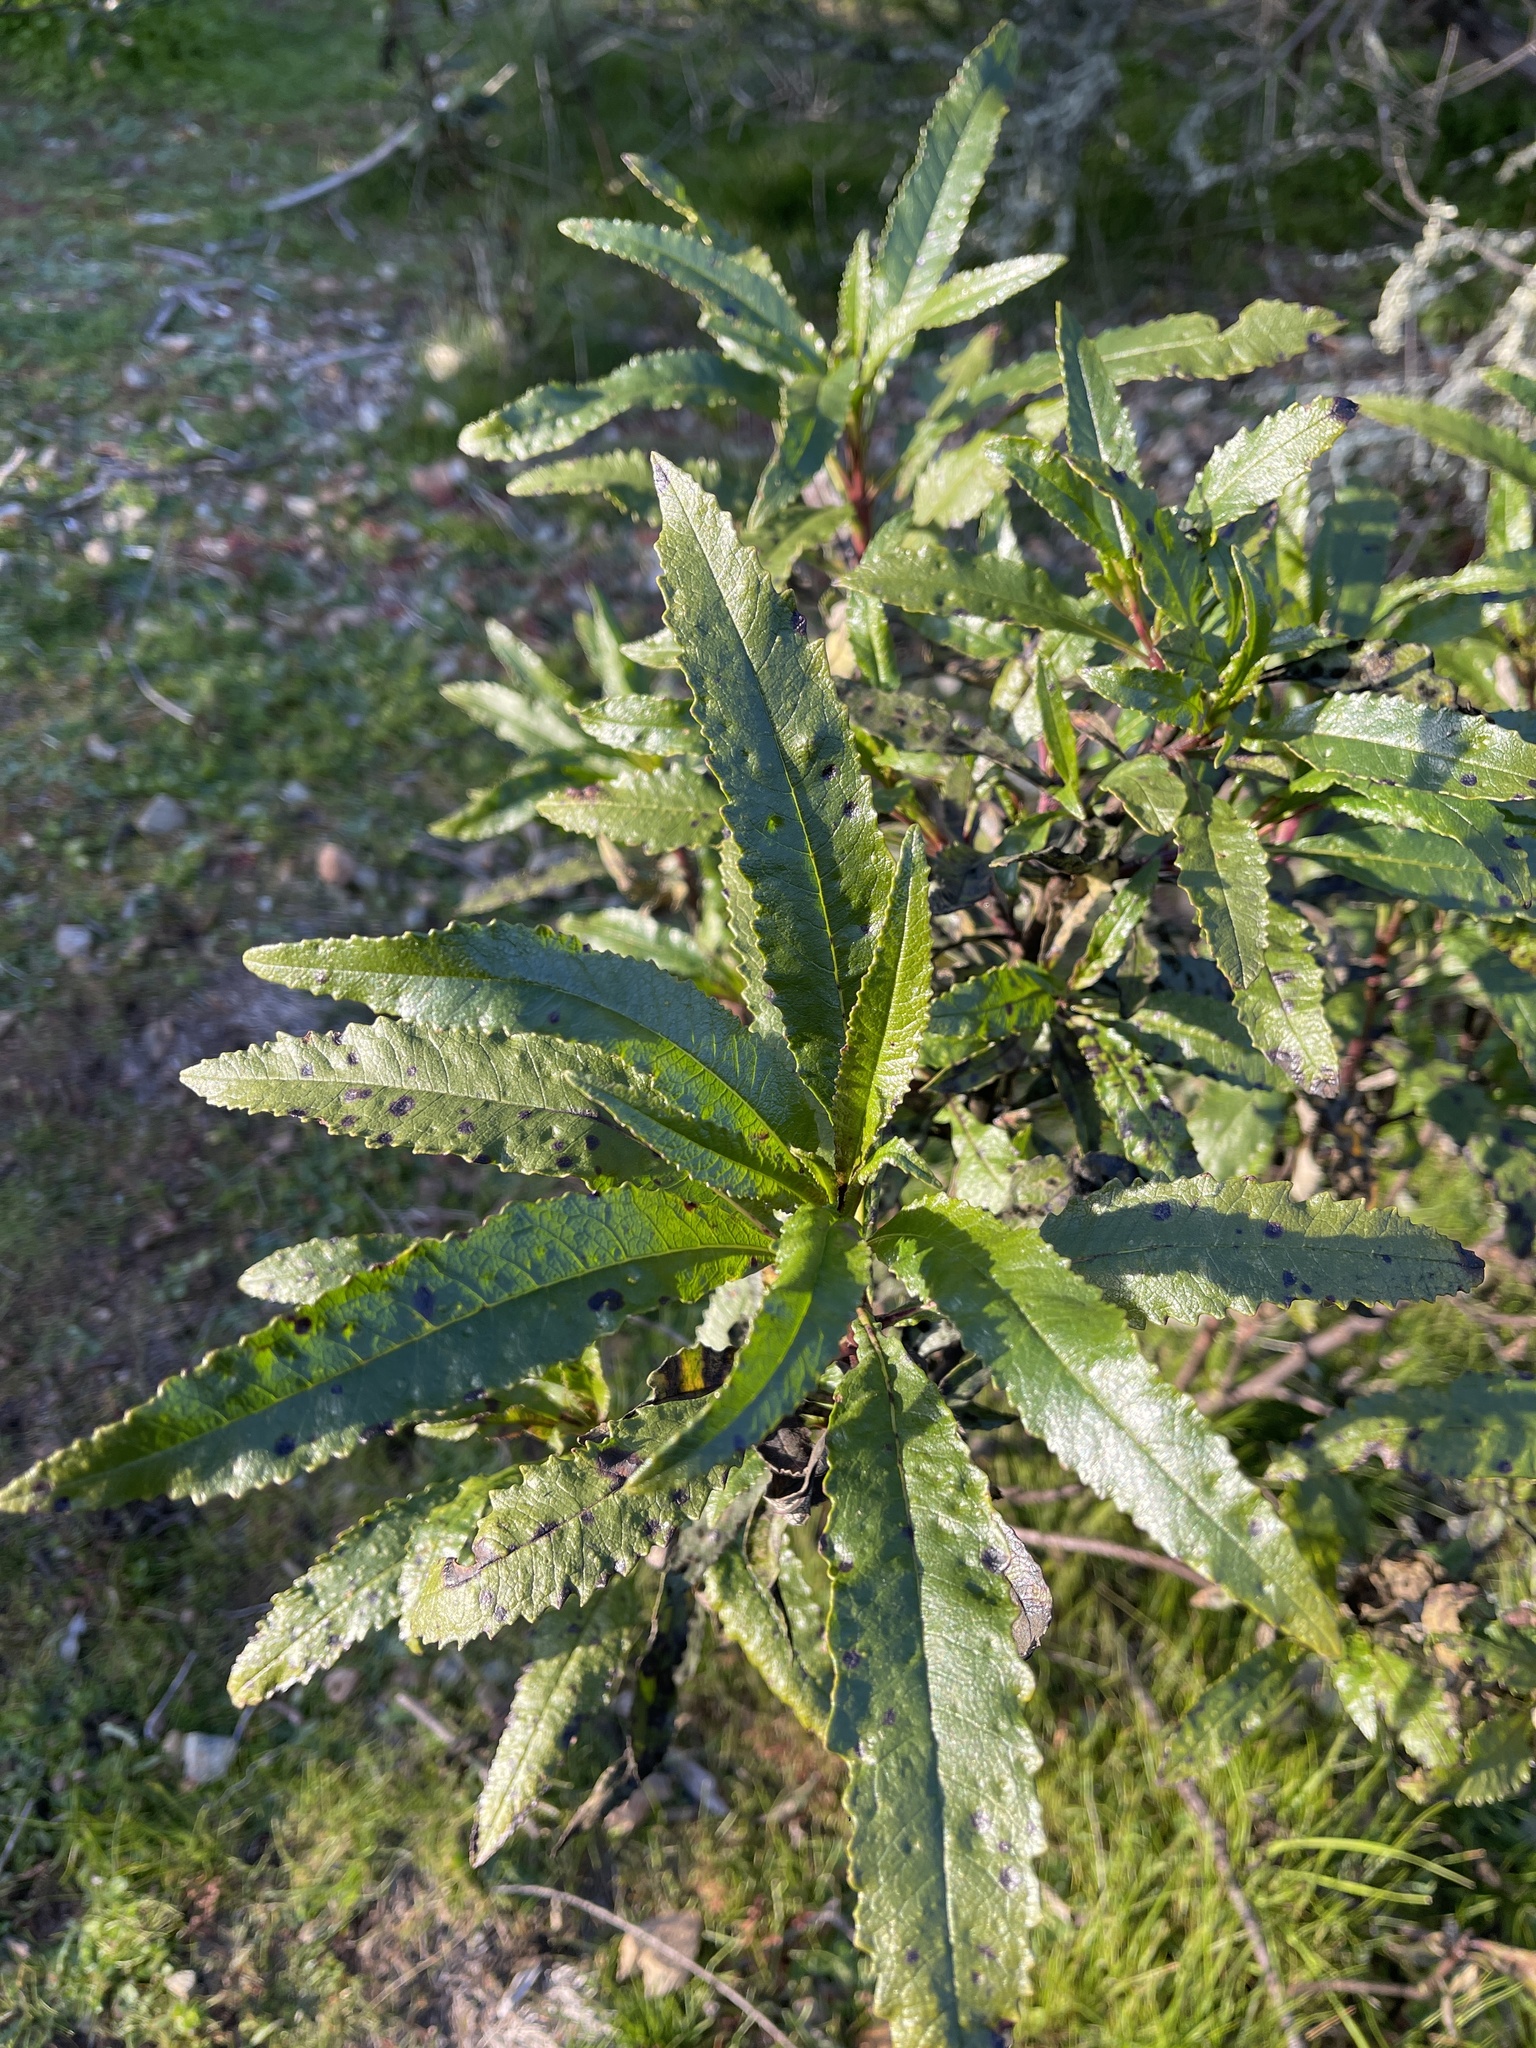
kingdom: Plantae
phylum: Tracheophyta
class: Magnoliopsida
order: Boraginales
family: Namaceae
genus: Eriodictyon
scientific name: Eriodictyon californicum
